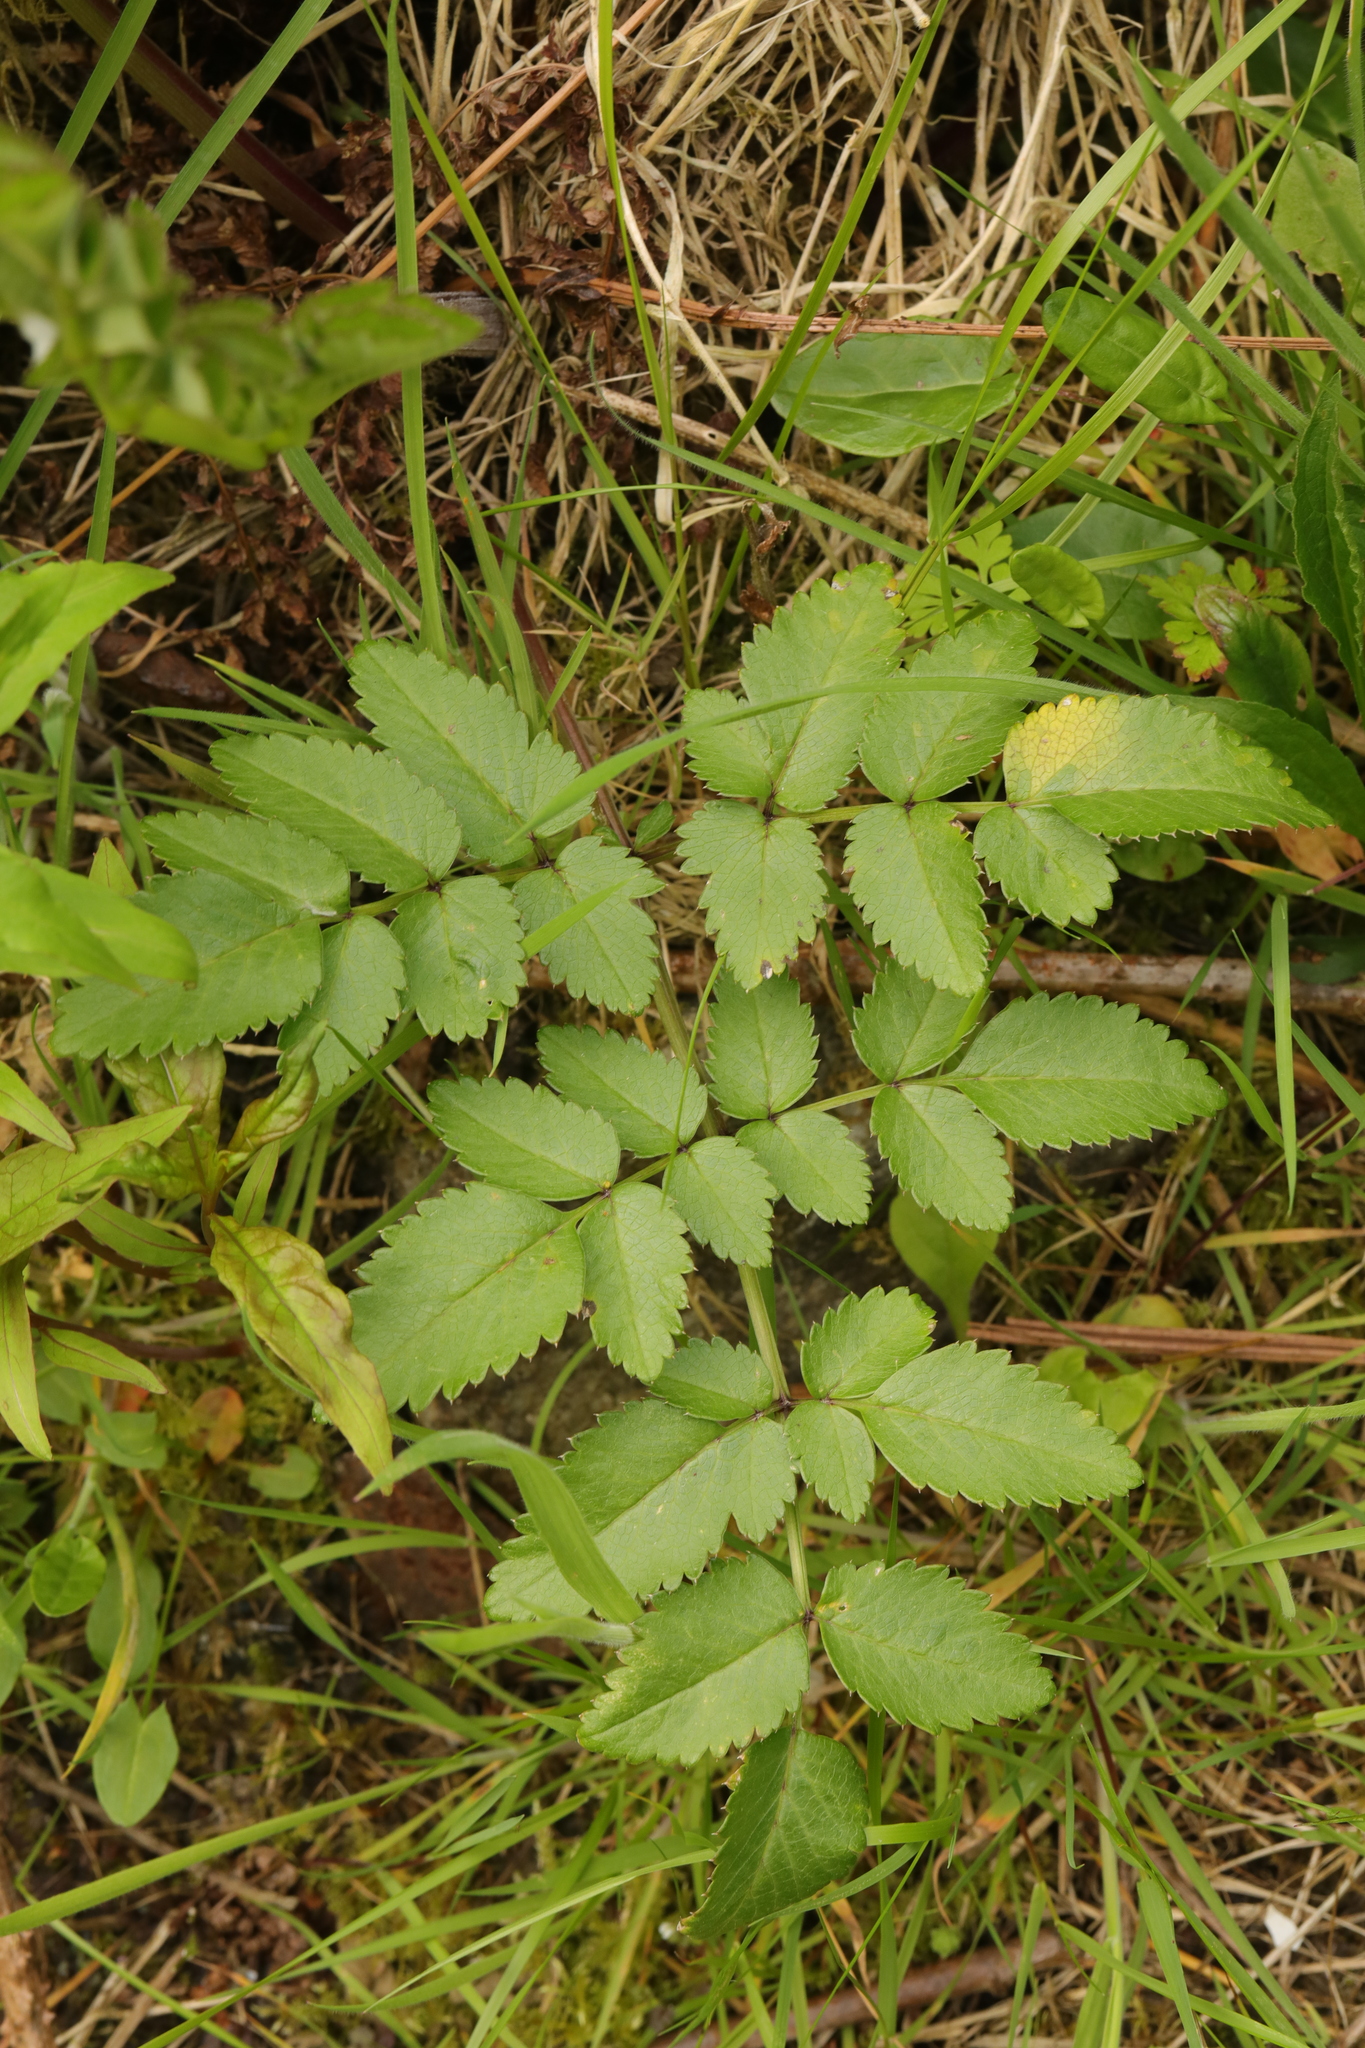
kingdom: Plantae
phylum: Tracheophyta
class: Magnoliopsida
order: Apiales
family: Apiaceae
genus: Angelica
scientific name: Angelica sylvestris
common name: Wild angelica
